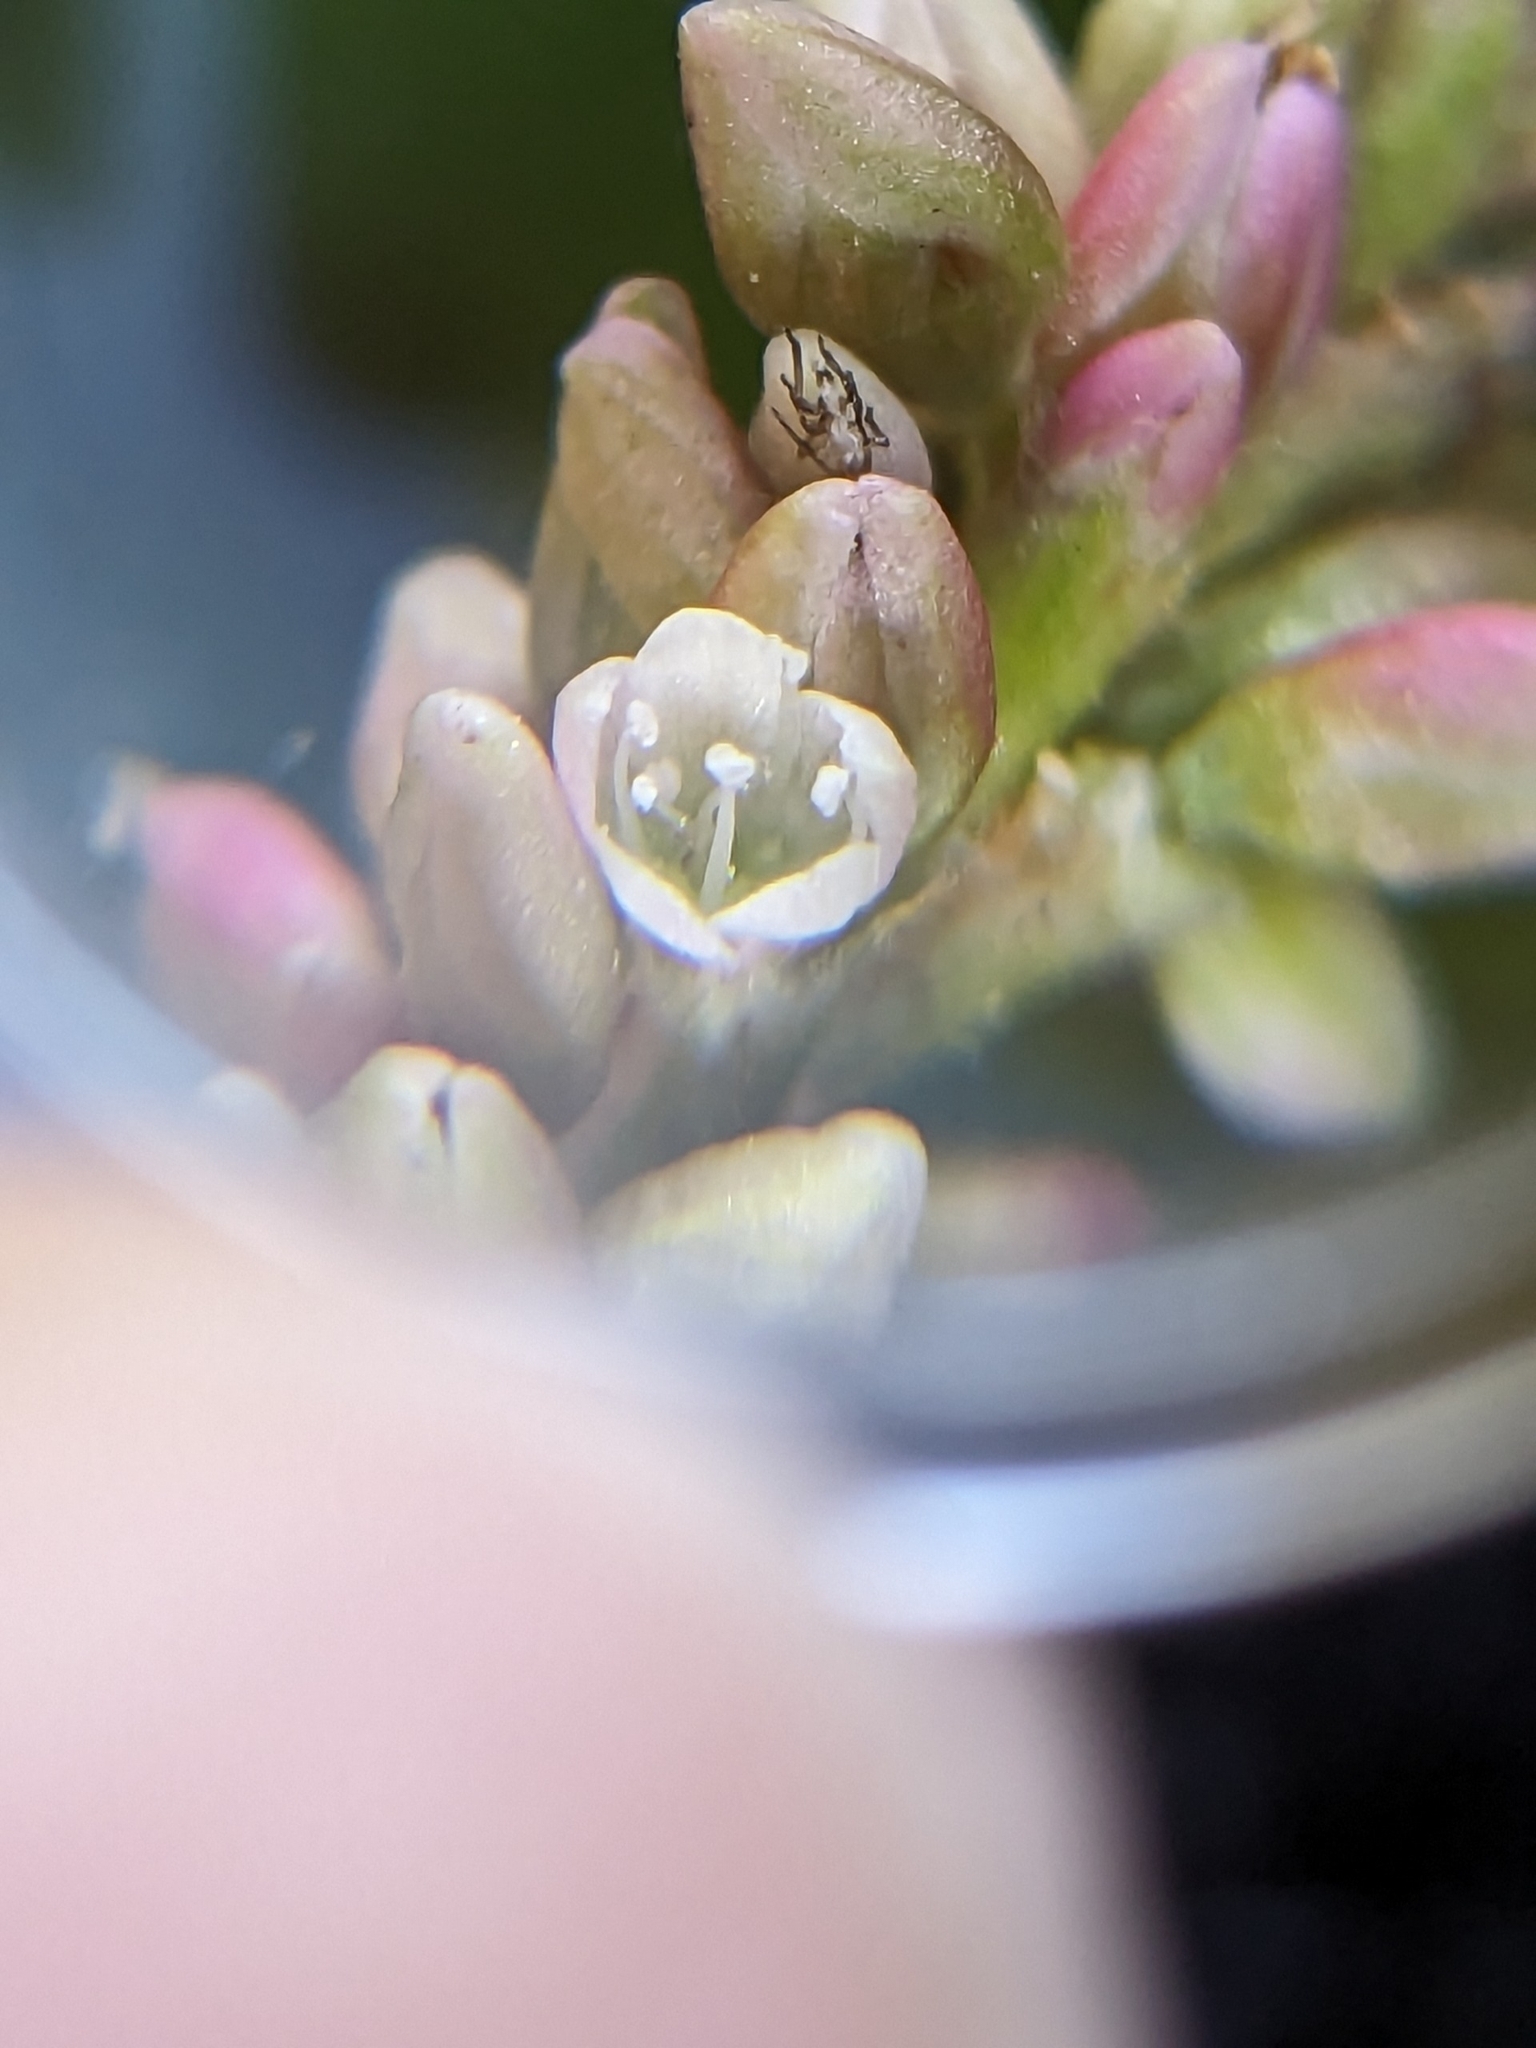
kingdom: Plantae
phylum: Tracheophyta
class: Magnoliopsida
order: Caryophyllales
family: Polygonaceae
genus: Persicaria
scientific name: Persicaria maculosa
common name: Redshank
